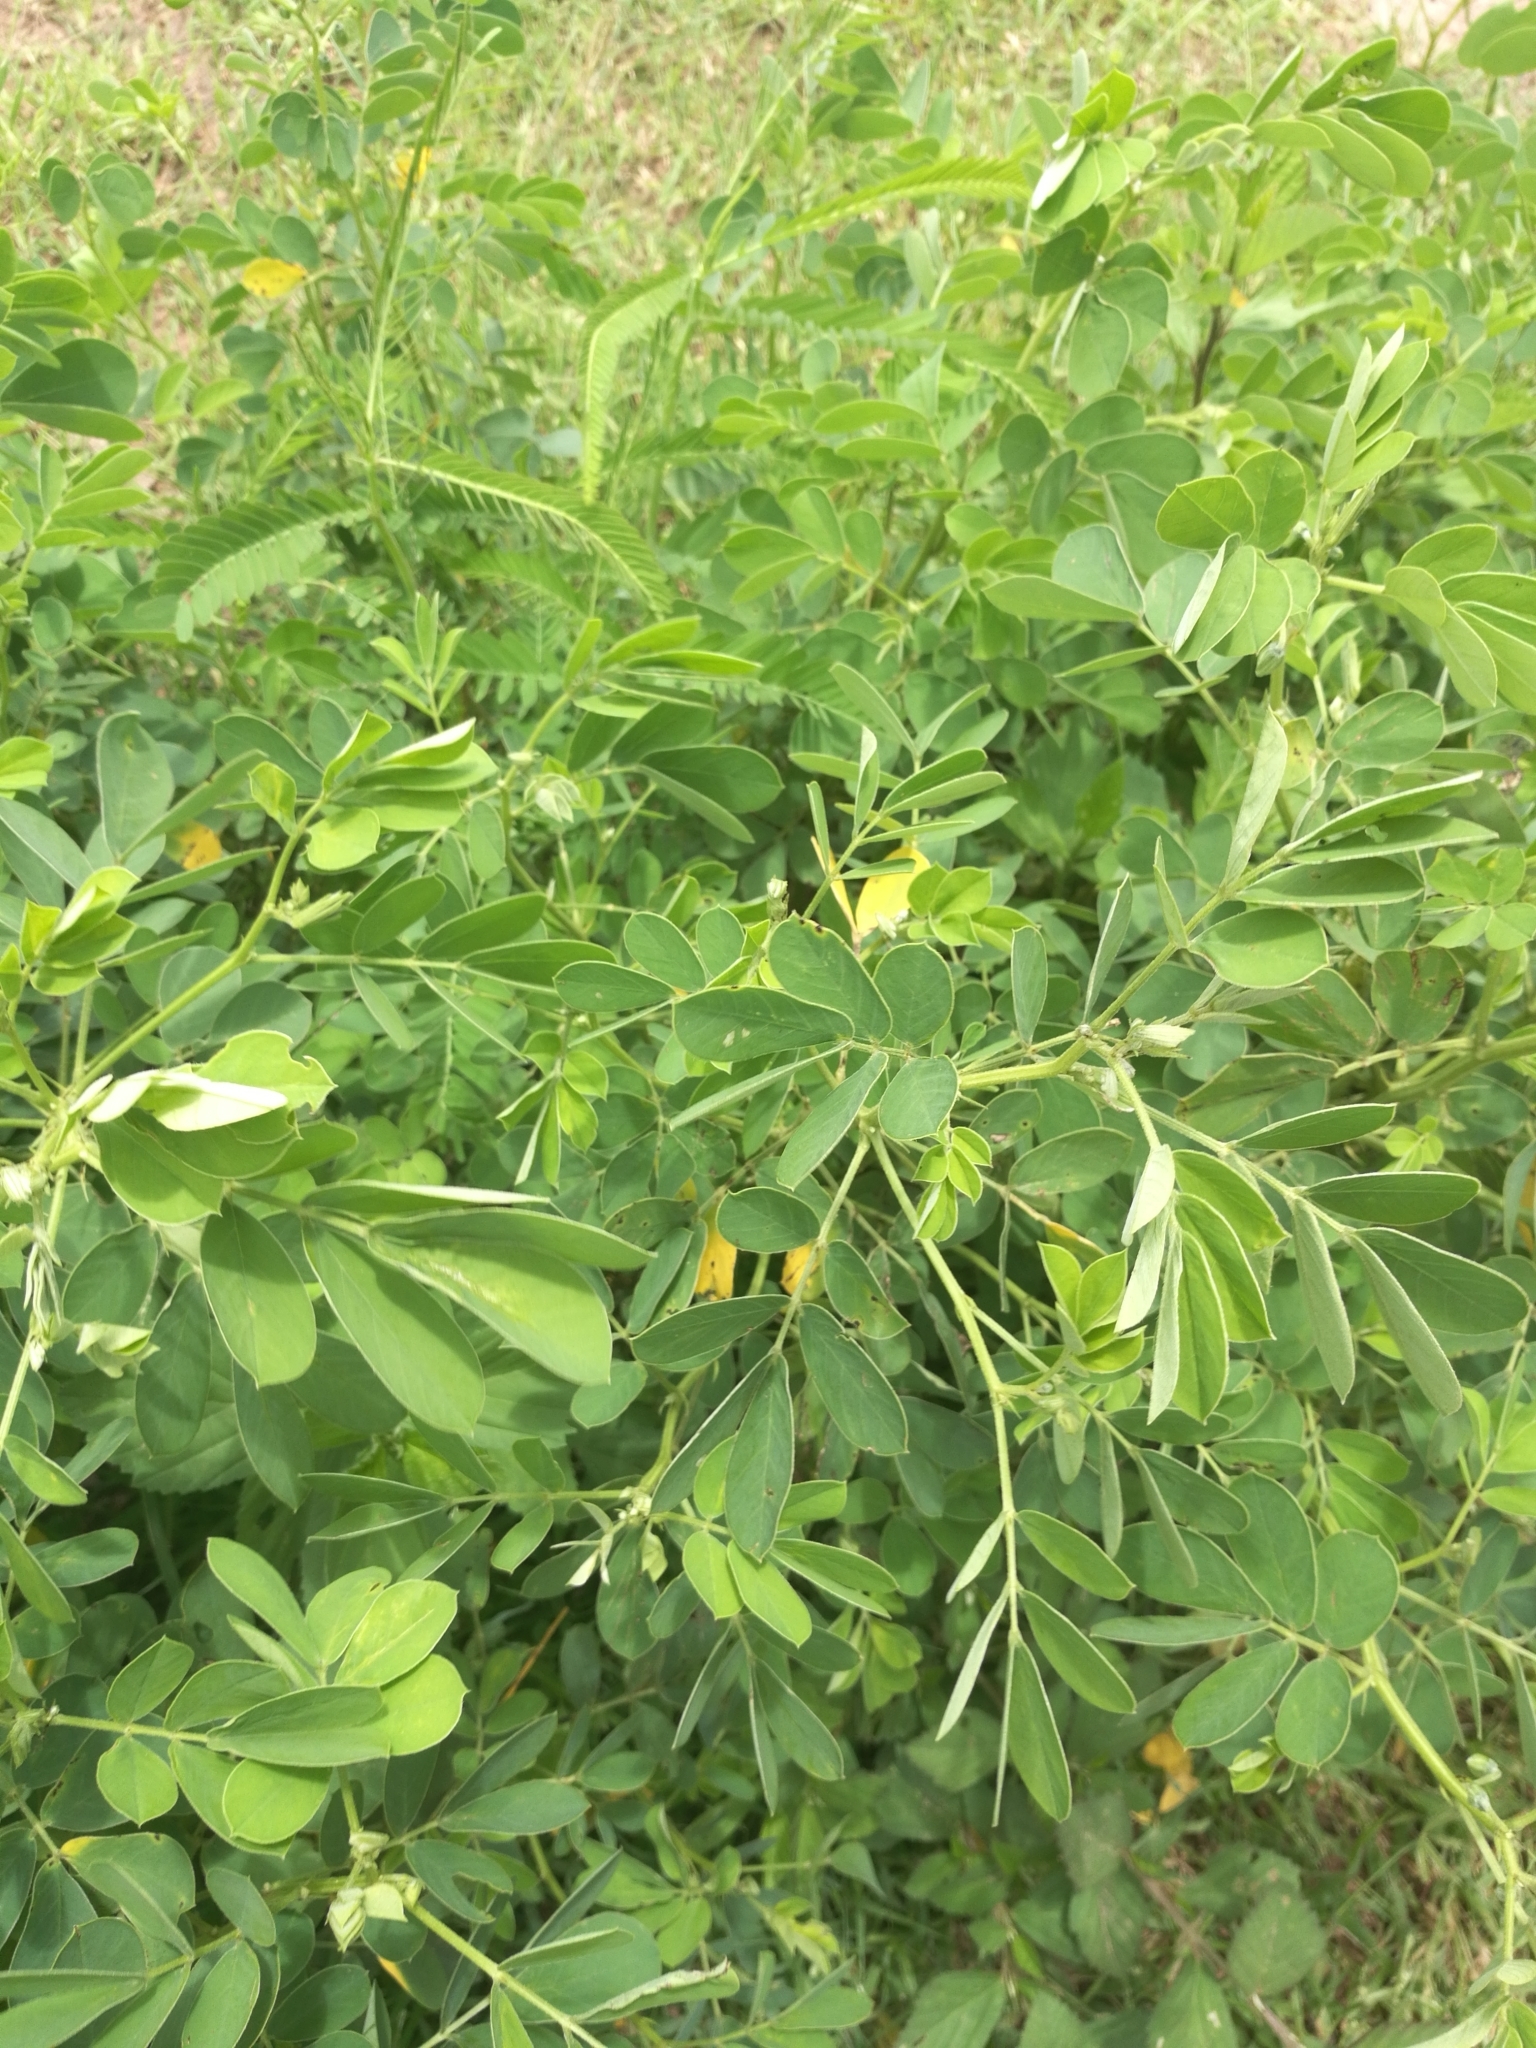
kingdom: Plantae
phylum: Tracheophyta
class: Magnoliopsida
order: Fabales
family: Fabaceae
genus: Senna
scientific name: Senna obtusifolia
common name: Java-bean
